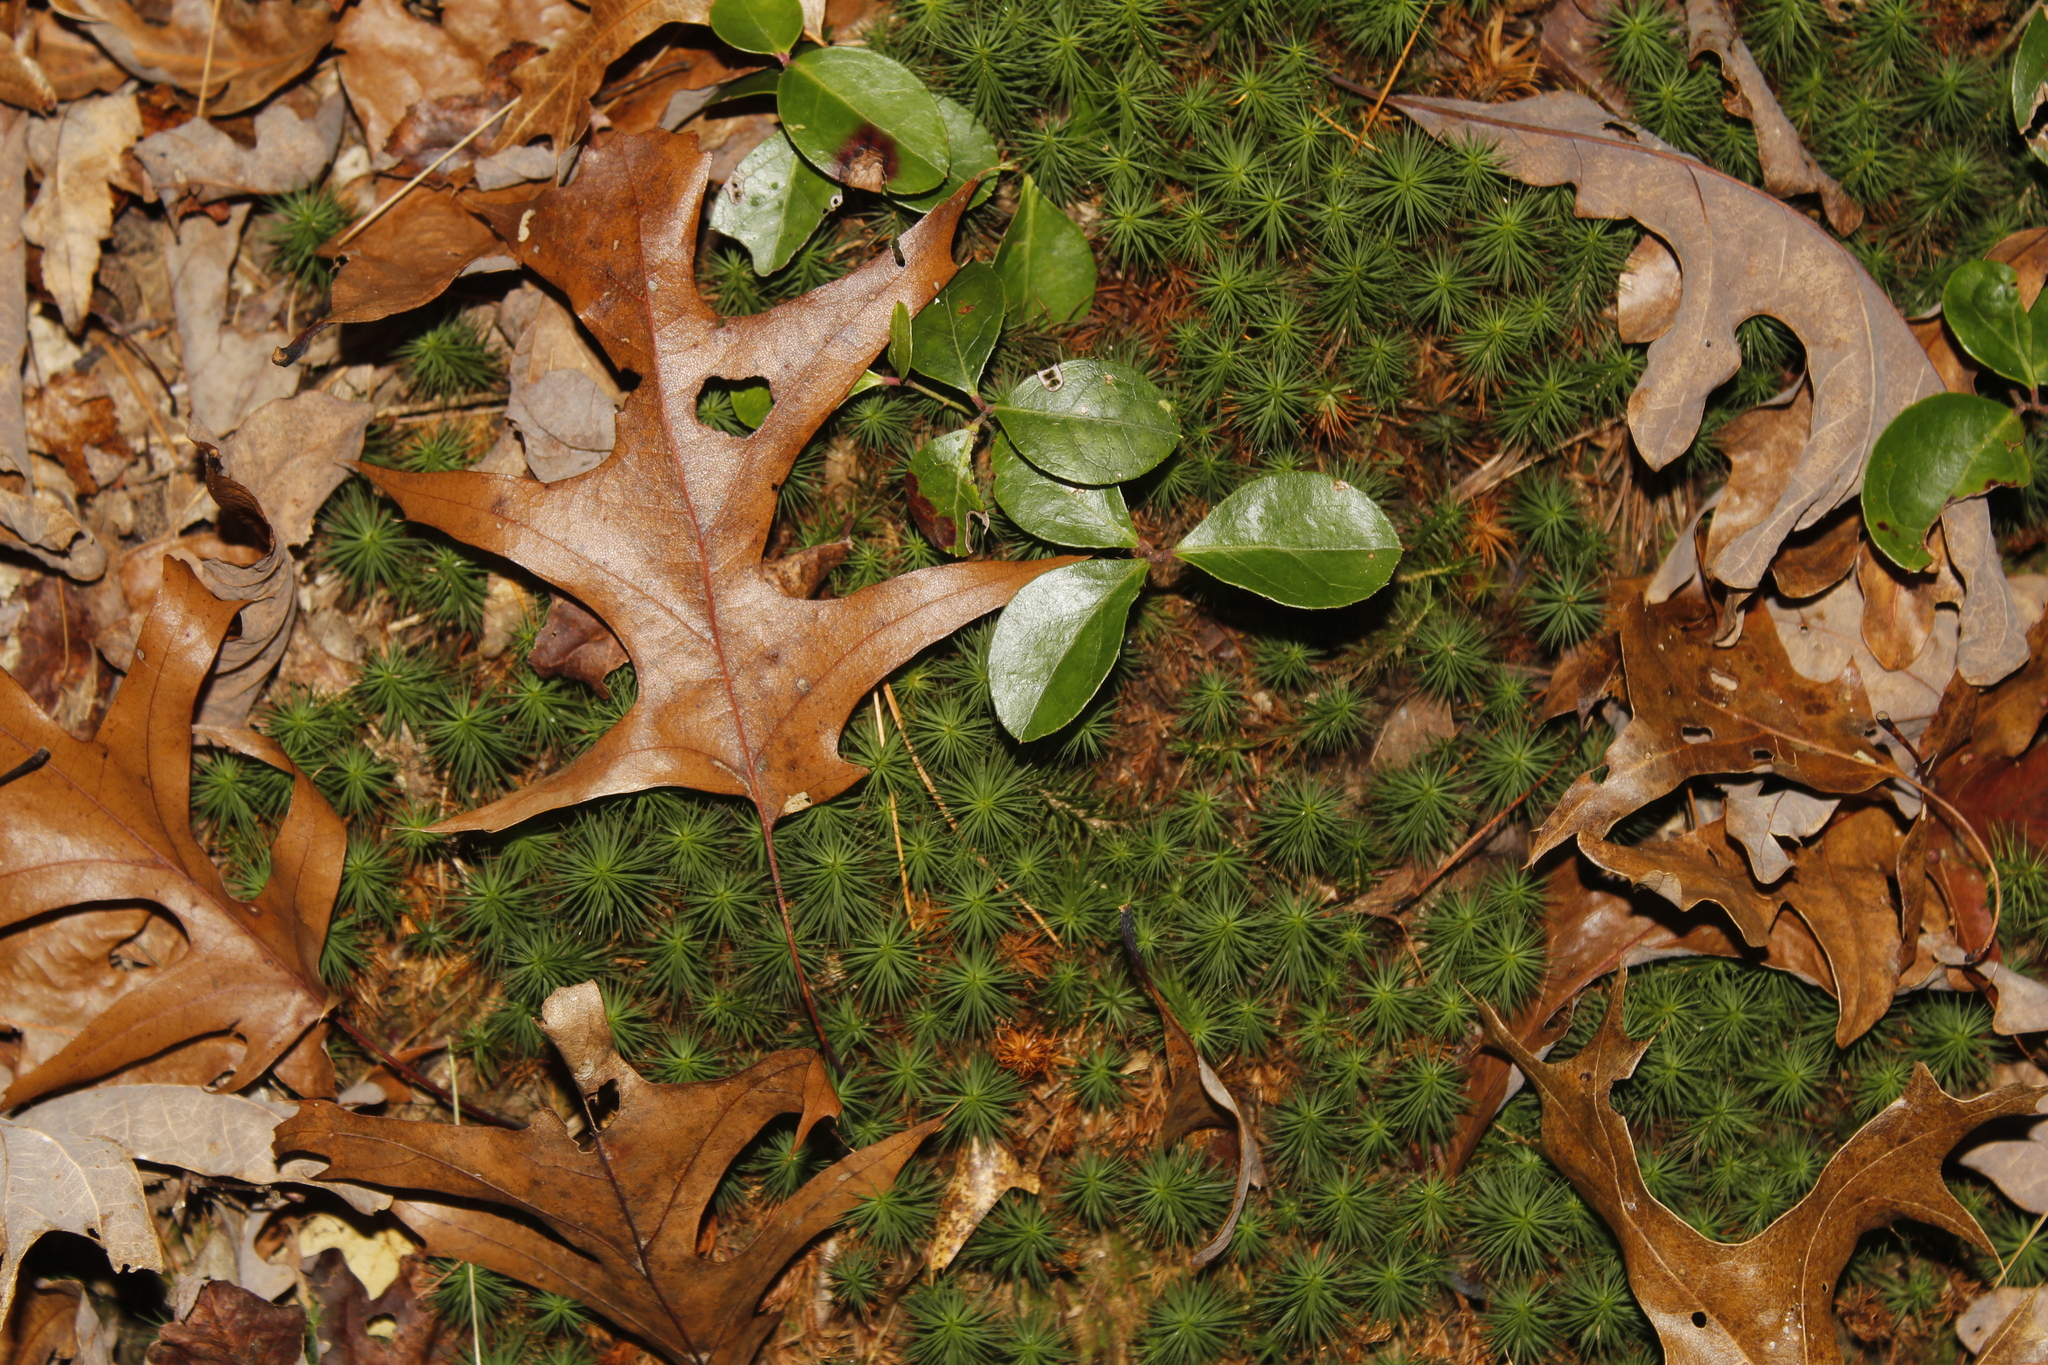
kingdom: Plantae
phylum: Tracheophyta
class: Magnoliopsida
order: Ericales
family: Ericaceae
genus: Gaultheria
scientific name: Gaultheria procumbens
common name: Checkerberry
